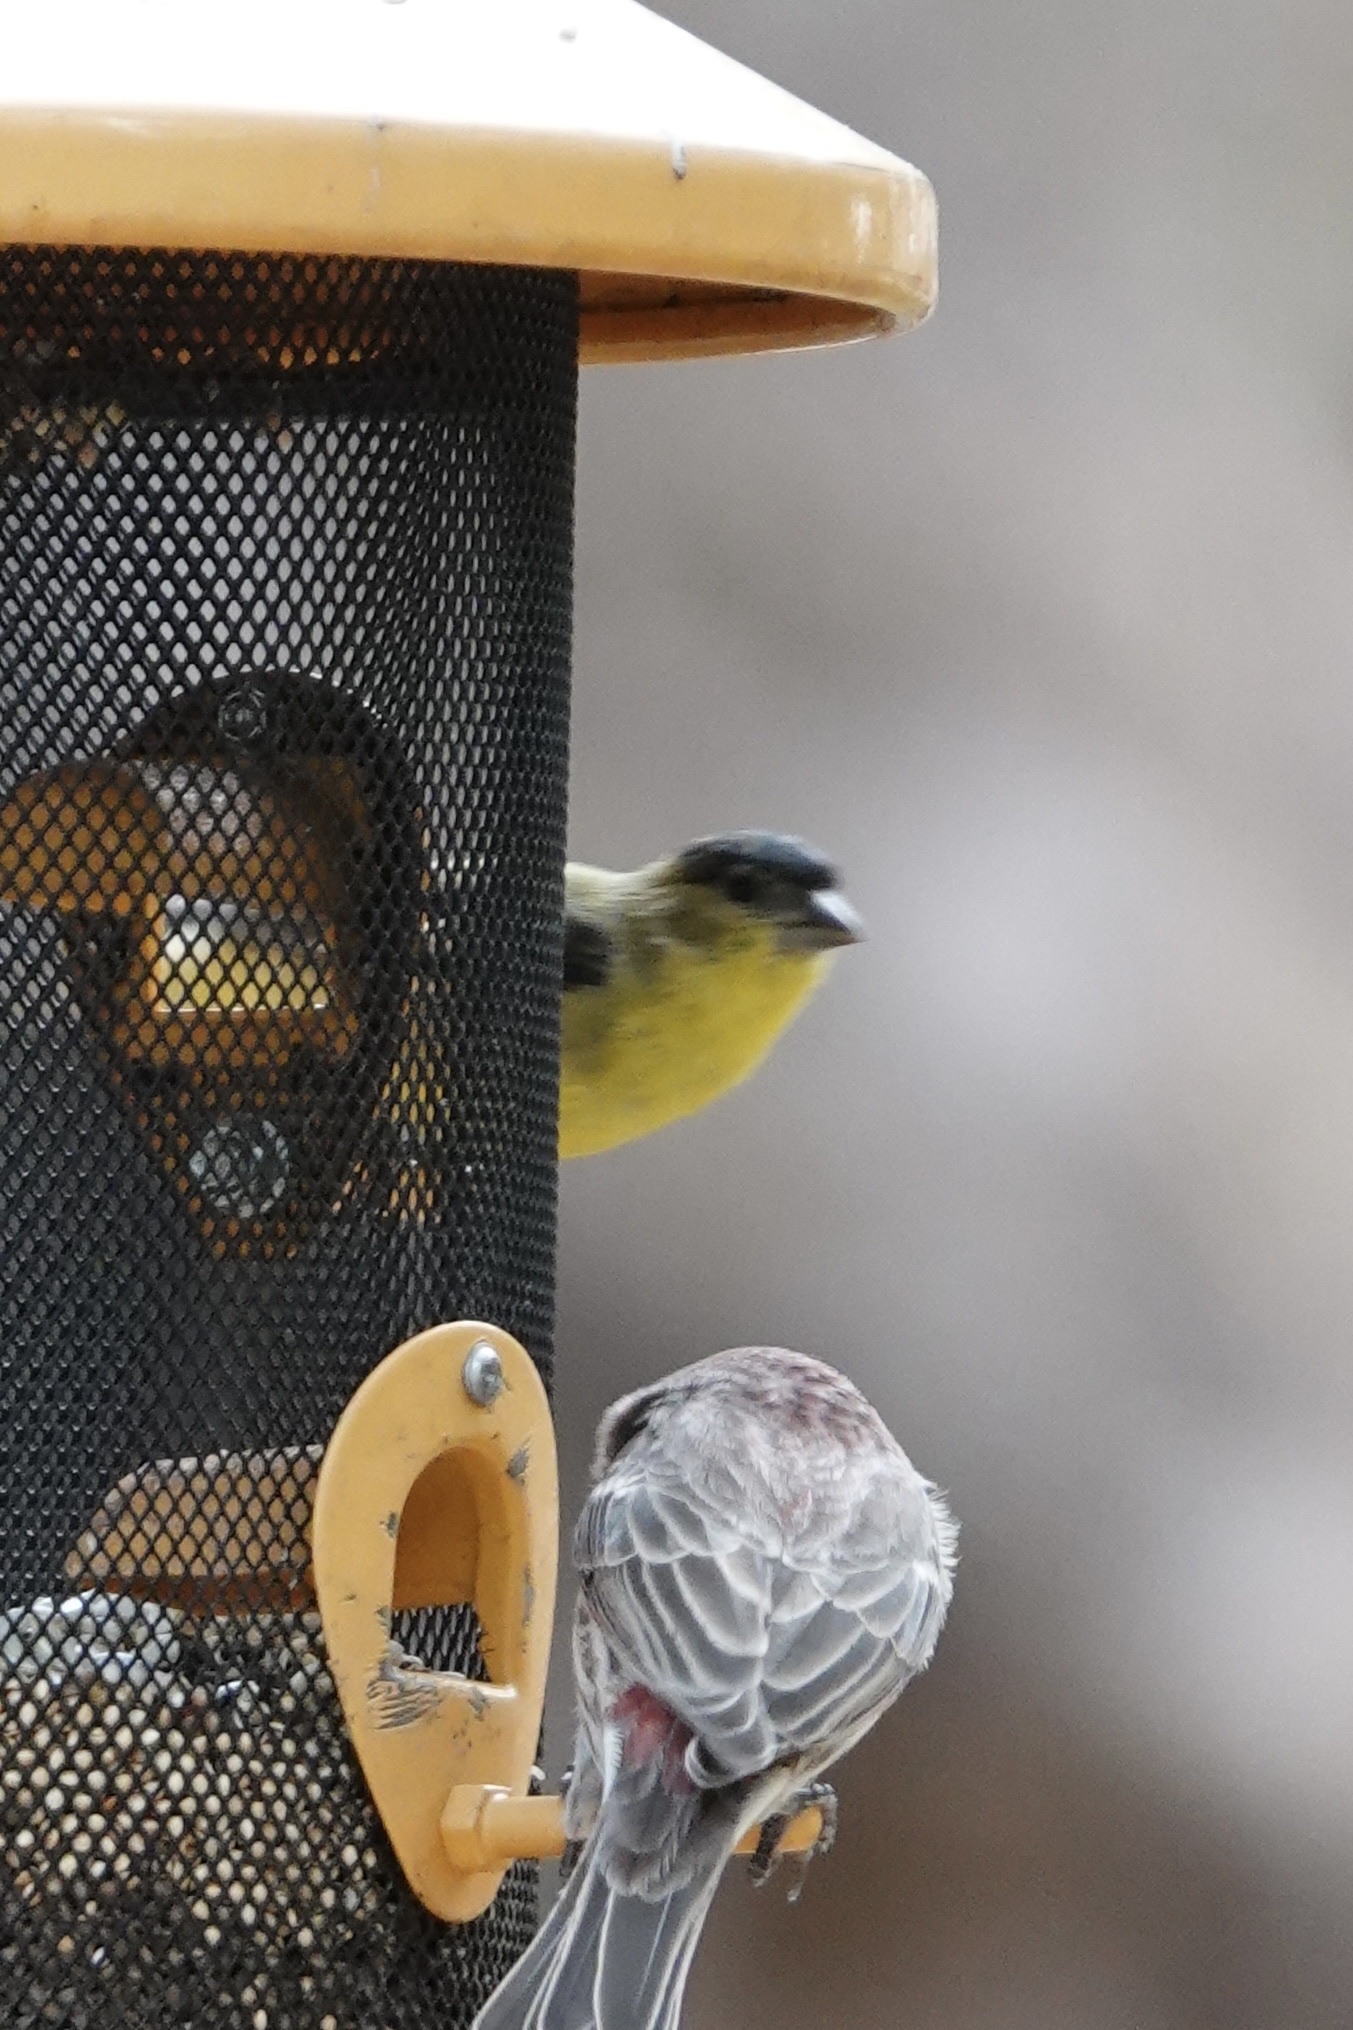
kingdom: Animalia
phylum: Chordata
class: Aves
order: Passeriformes
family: Fringillidae
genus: Spinus
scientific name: Spinus psaltria
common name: Lesser goldfinch
